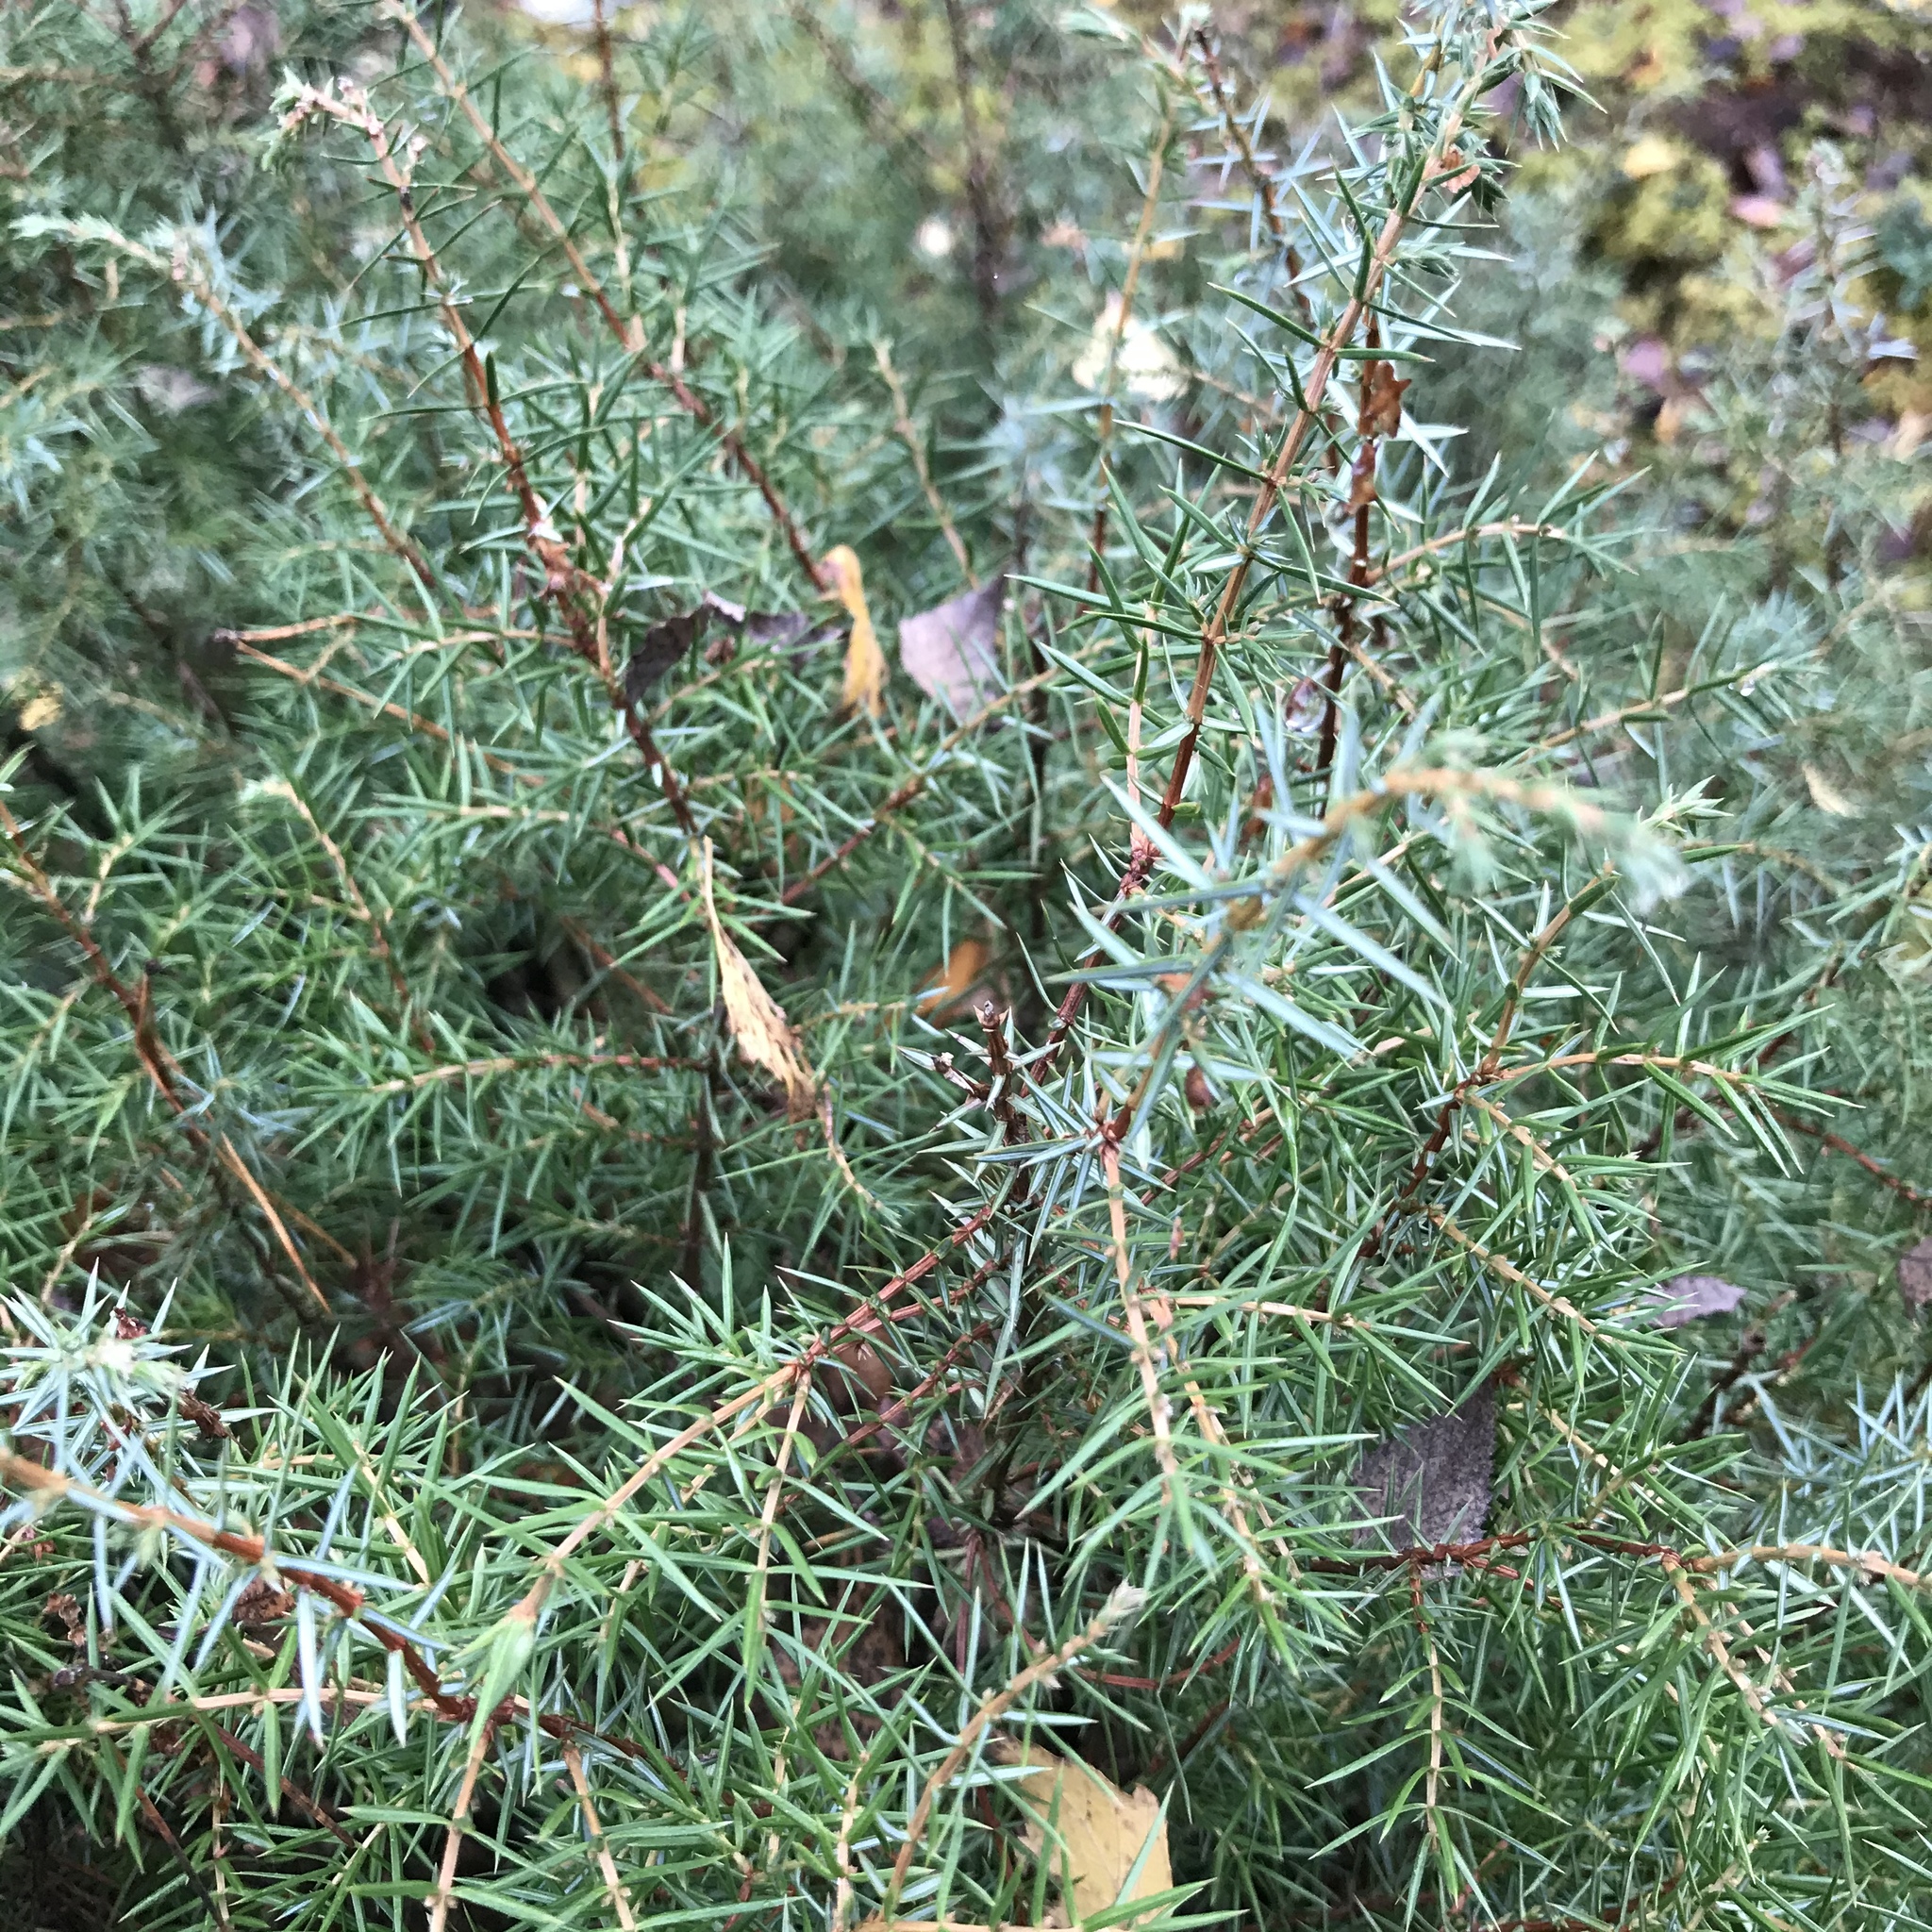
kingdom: Plantae
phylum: Tracheophyta
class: Pinopsida
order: Pinales
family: Cupressaceae
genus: Juniperus
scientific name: Juniperus communis
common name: Common juniper
